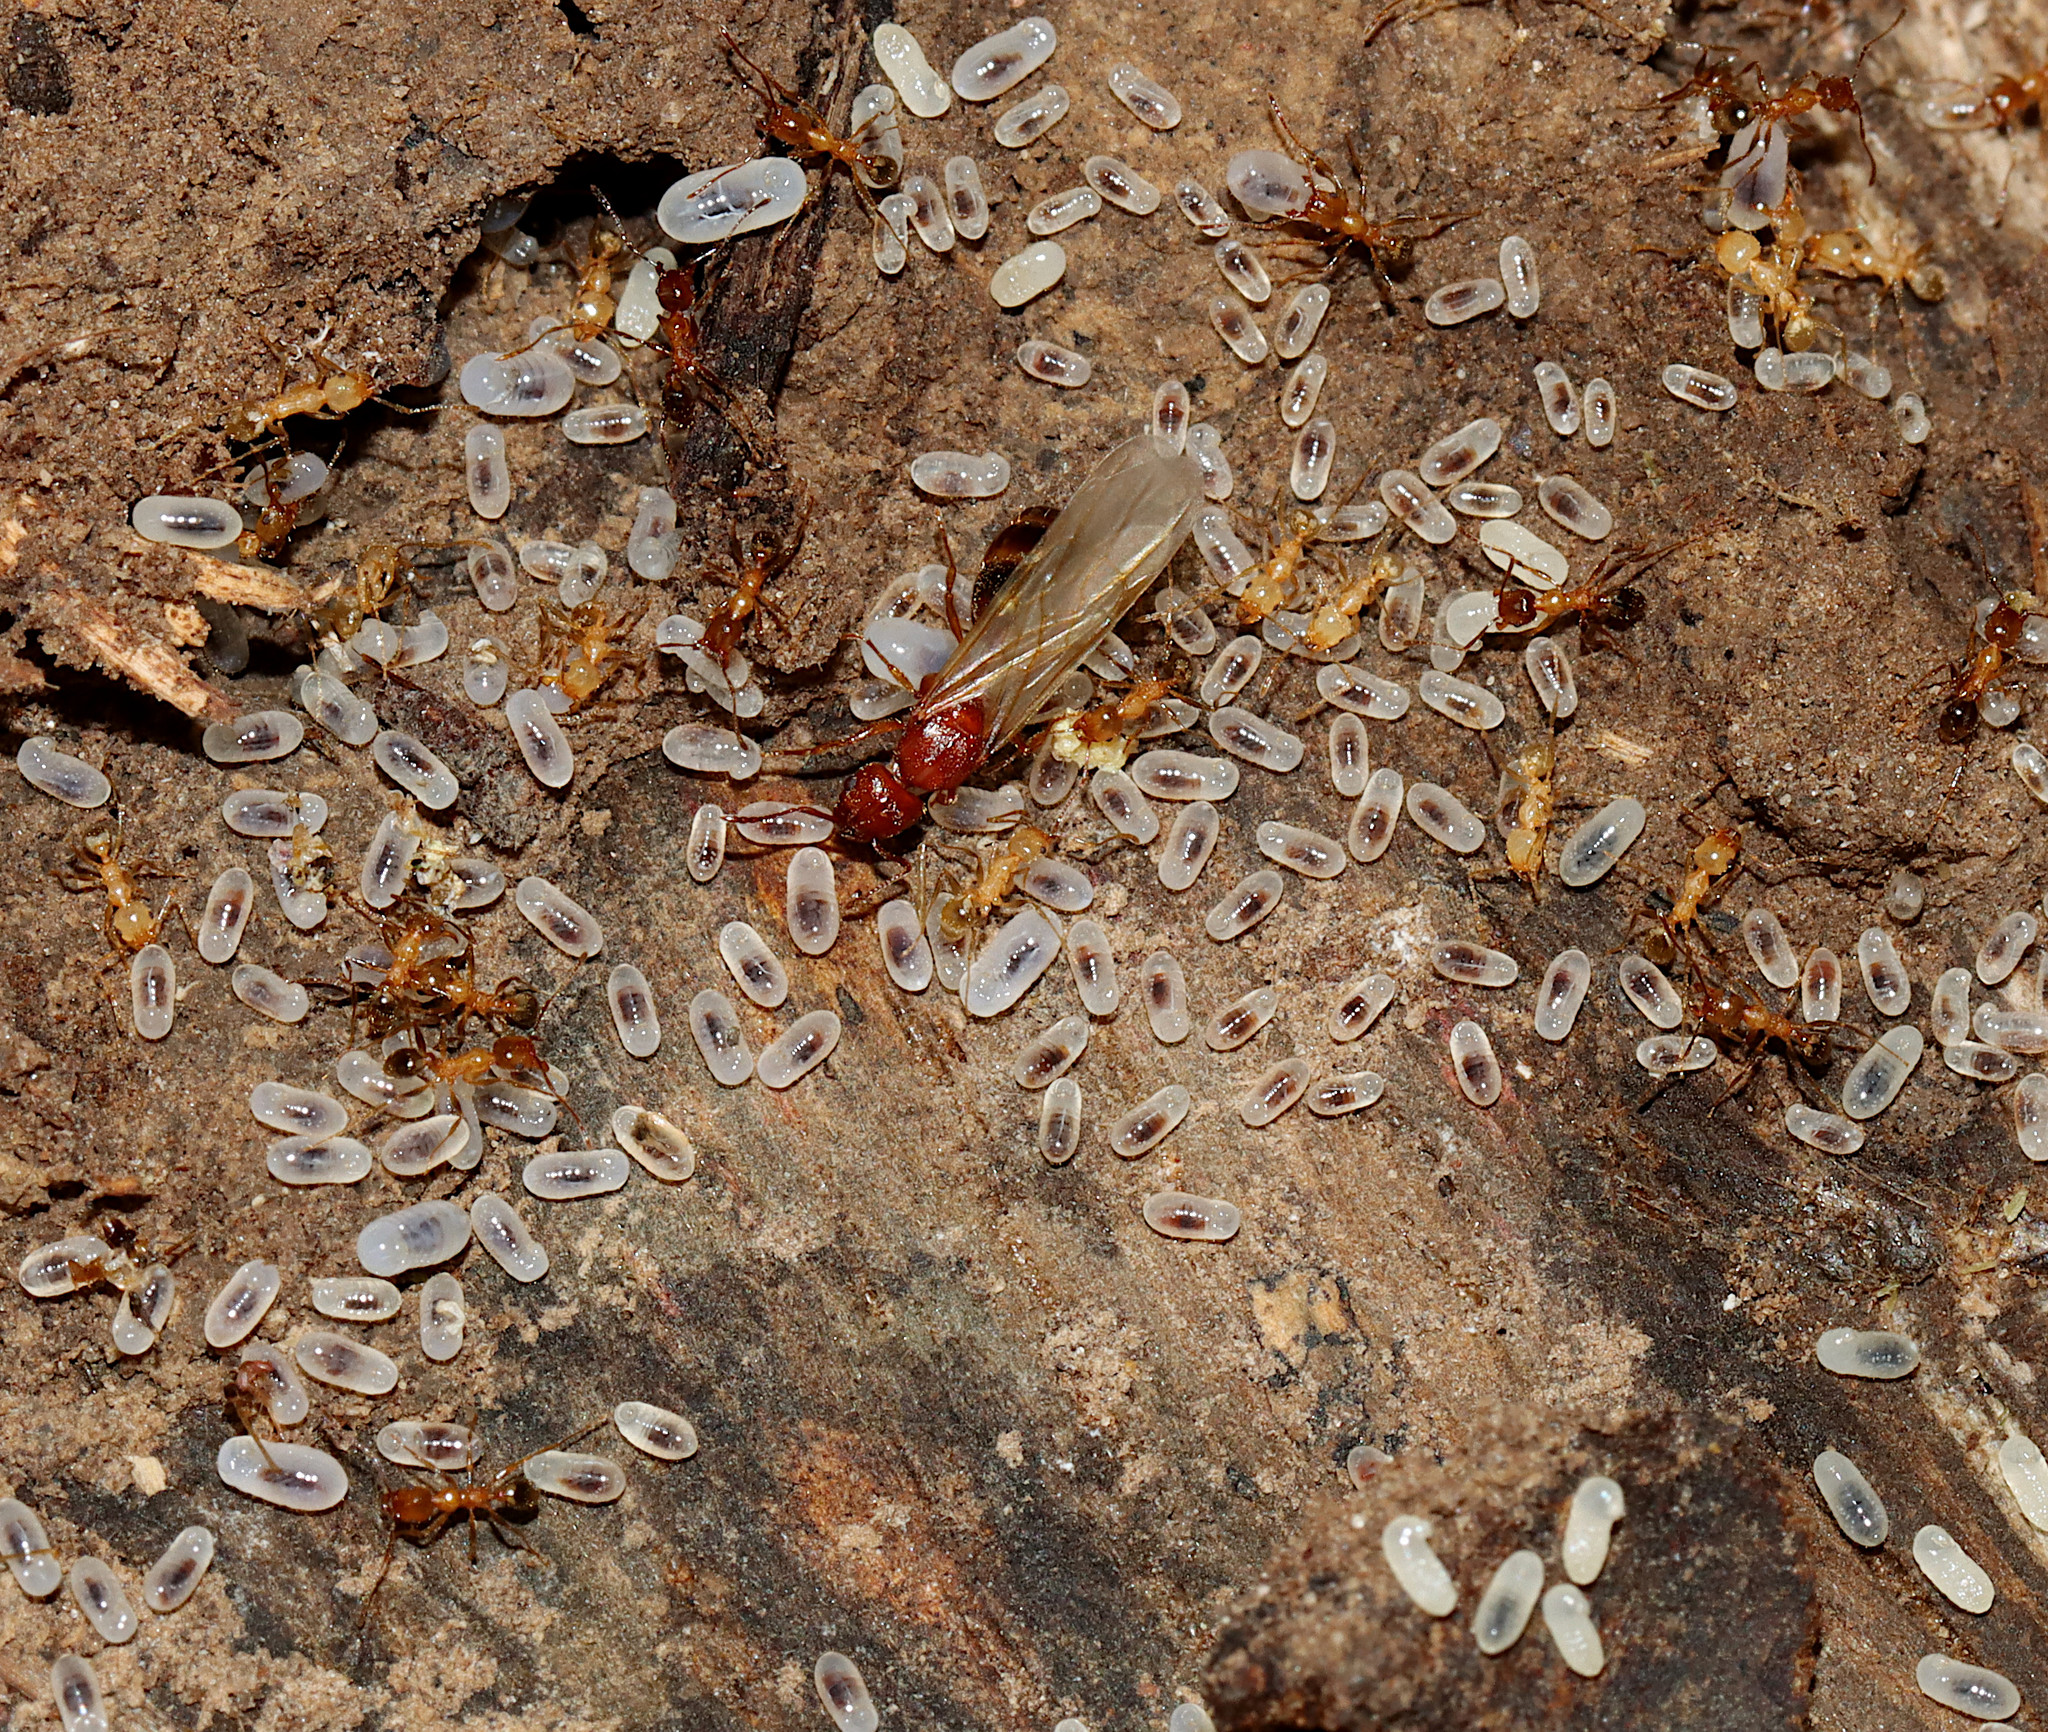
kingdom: Animalia
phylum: Arthropoda
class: Insecta
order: Hymenoptera
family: Formicidae
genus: Pheidole
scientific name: Pheidole dentata
